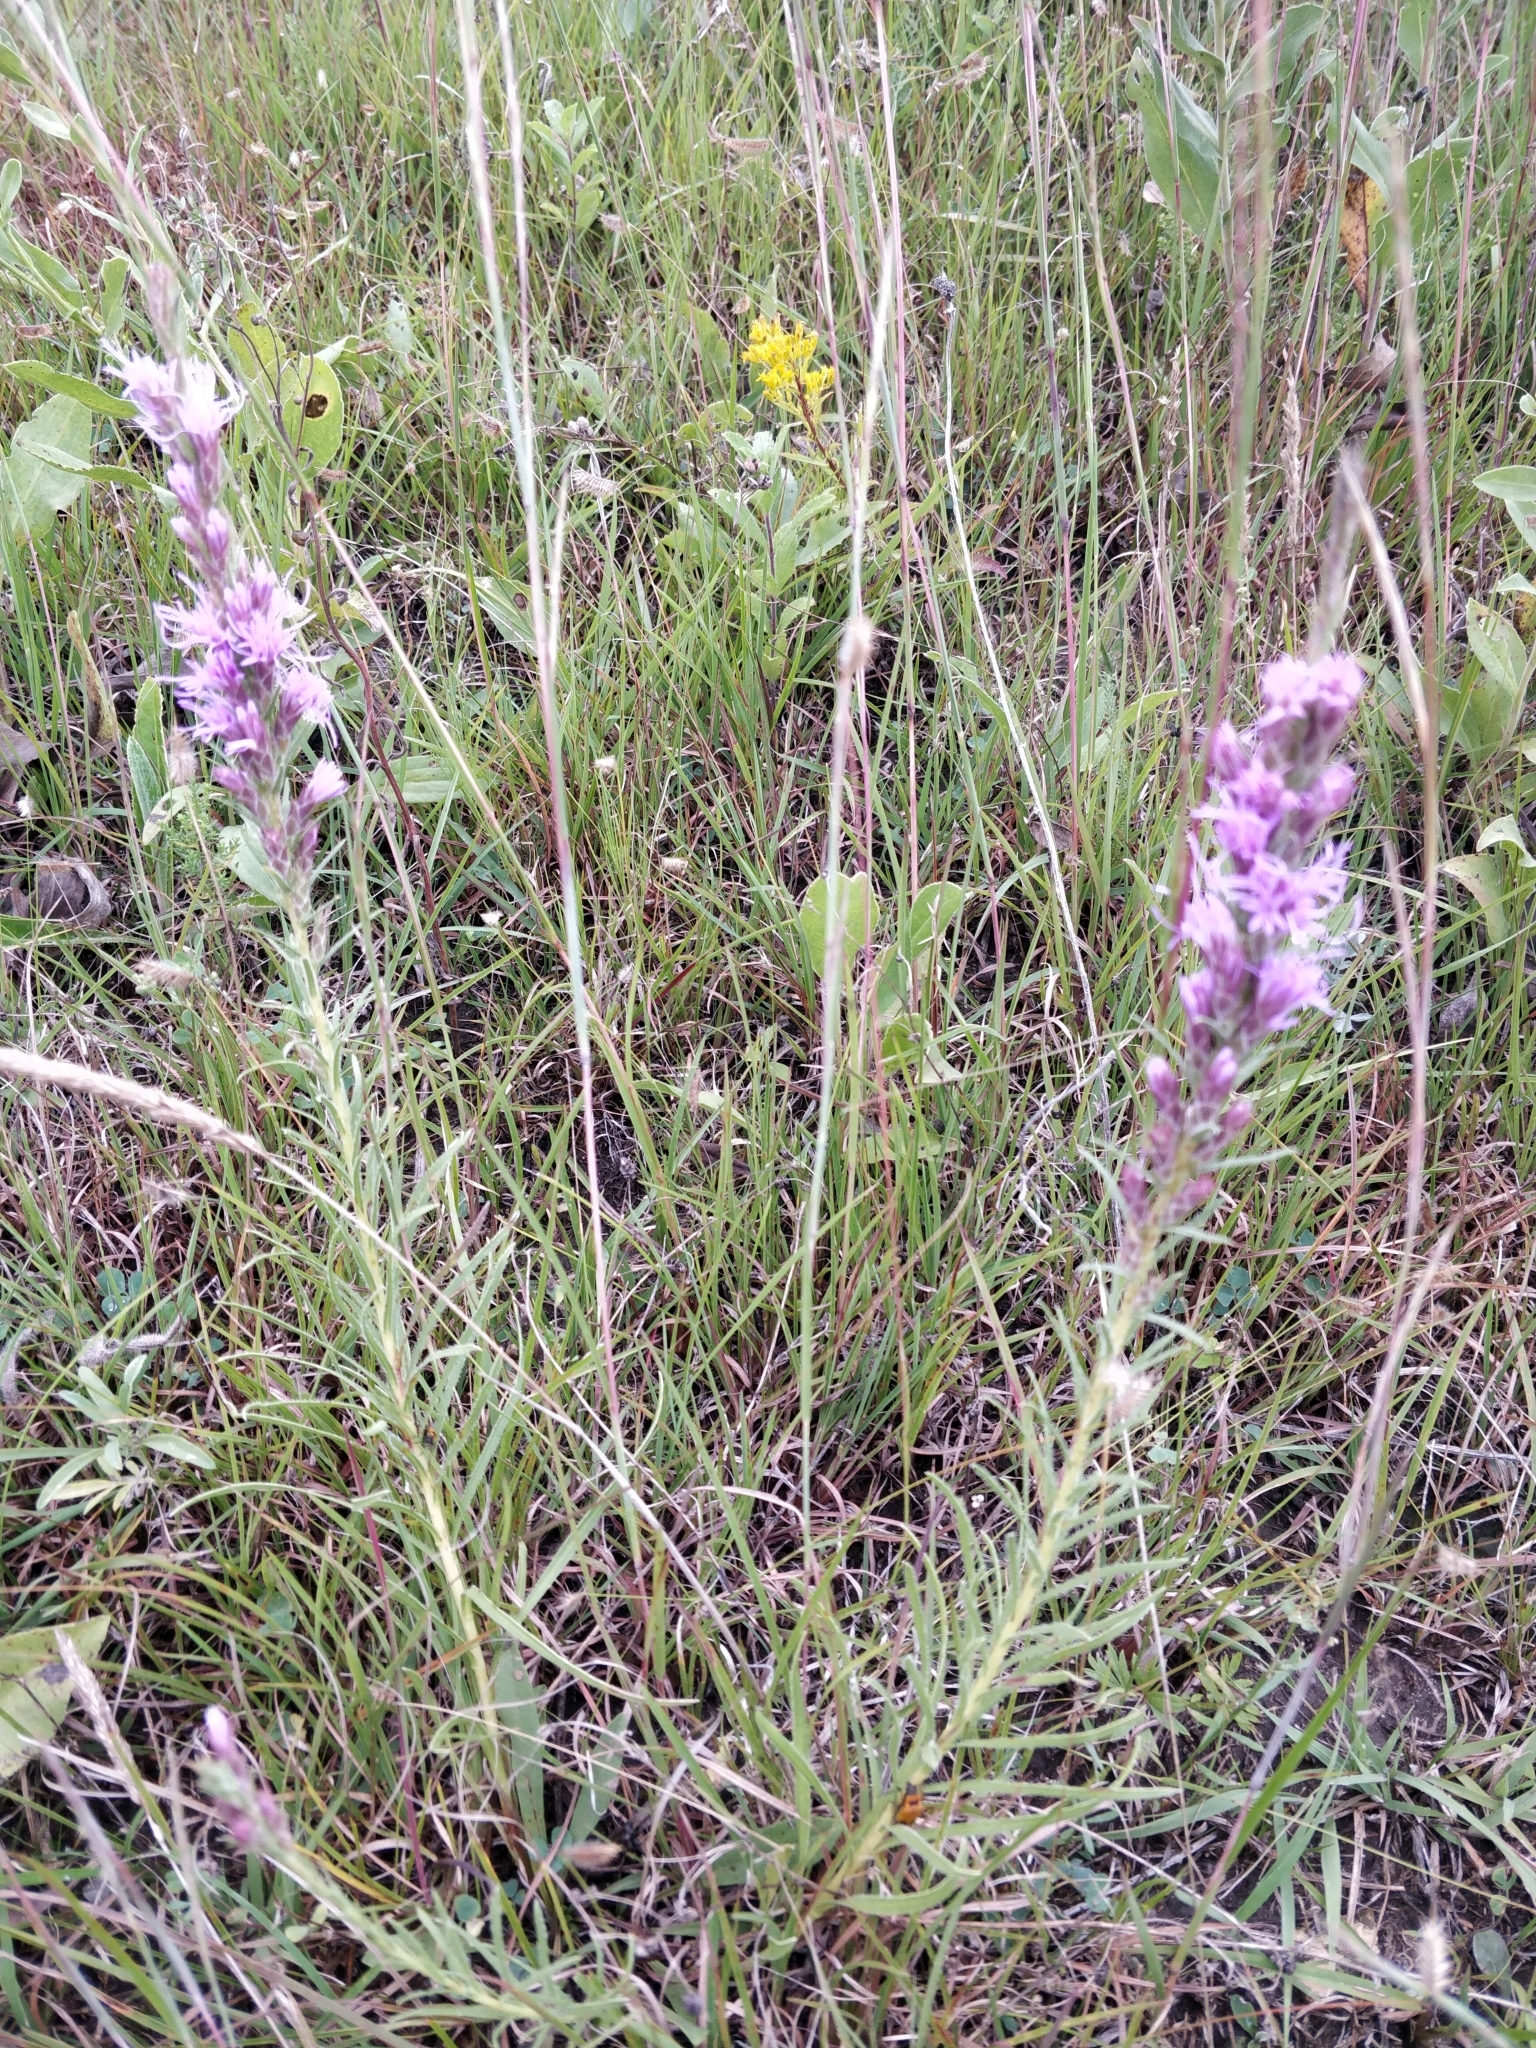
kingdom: Plantae
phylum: Tracheophyta
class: Magnoliopsida
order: Asterales
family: Asteraceae
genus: Liatris
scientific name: Liatris punctata
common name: Dotted gayfeather
